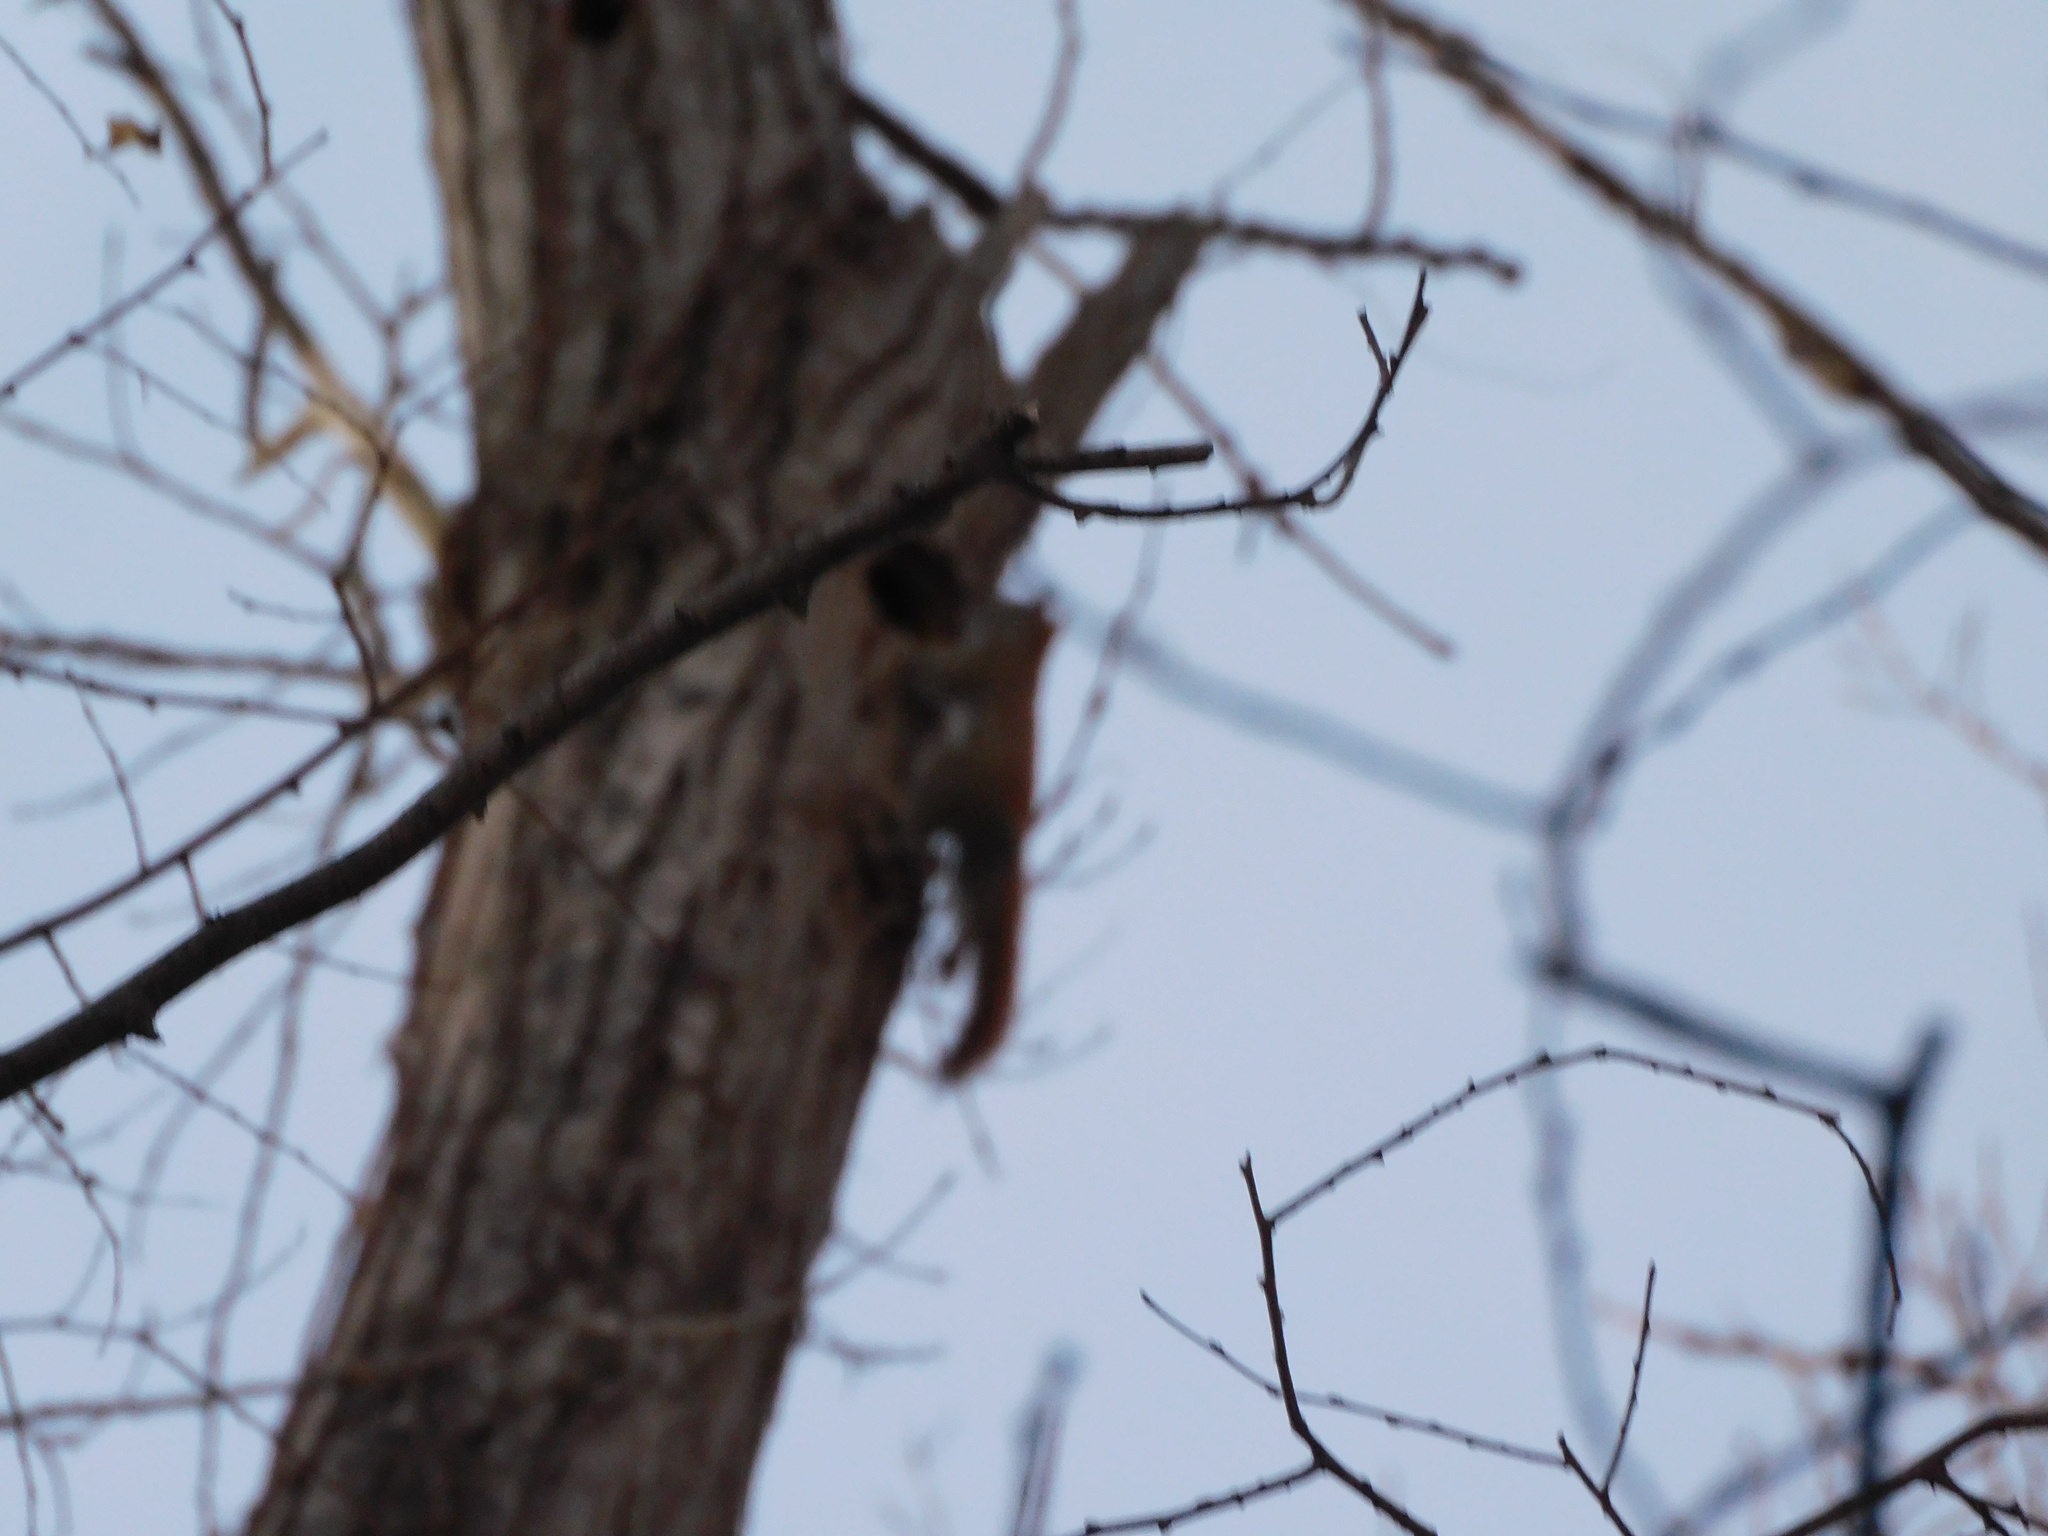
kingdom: Animalia
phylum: Chordata
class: Mammalia
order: Rodentia
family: Sciuridae
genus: Tamiasciurus
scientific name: Tamiasciurus hudsonicus
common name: Red squirrel
